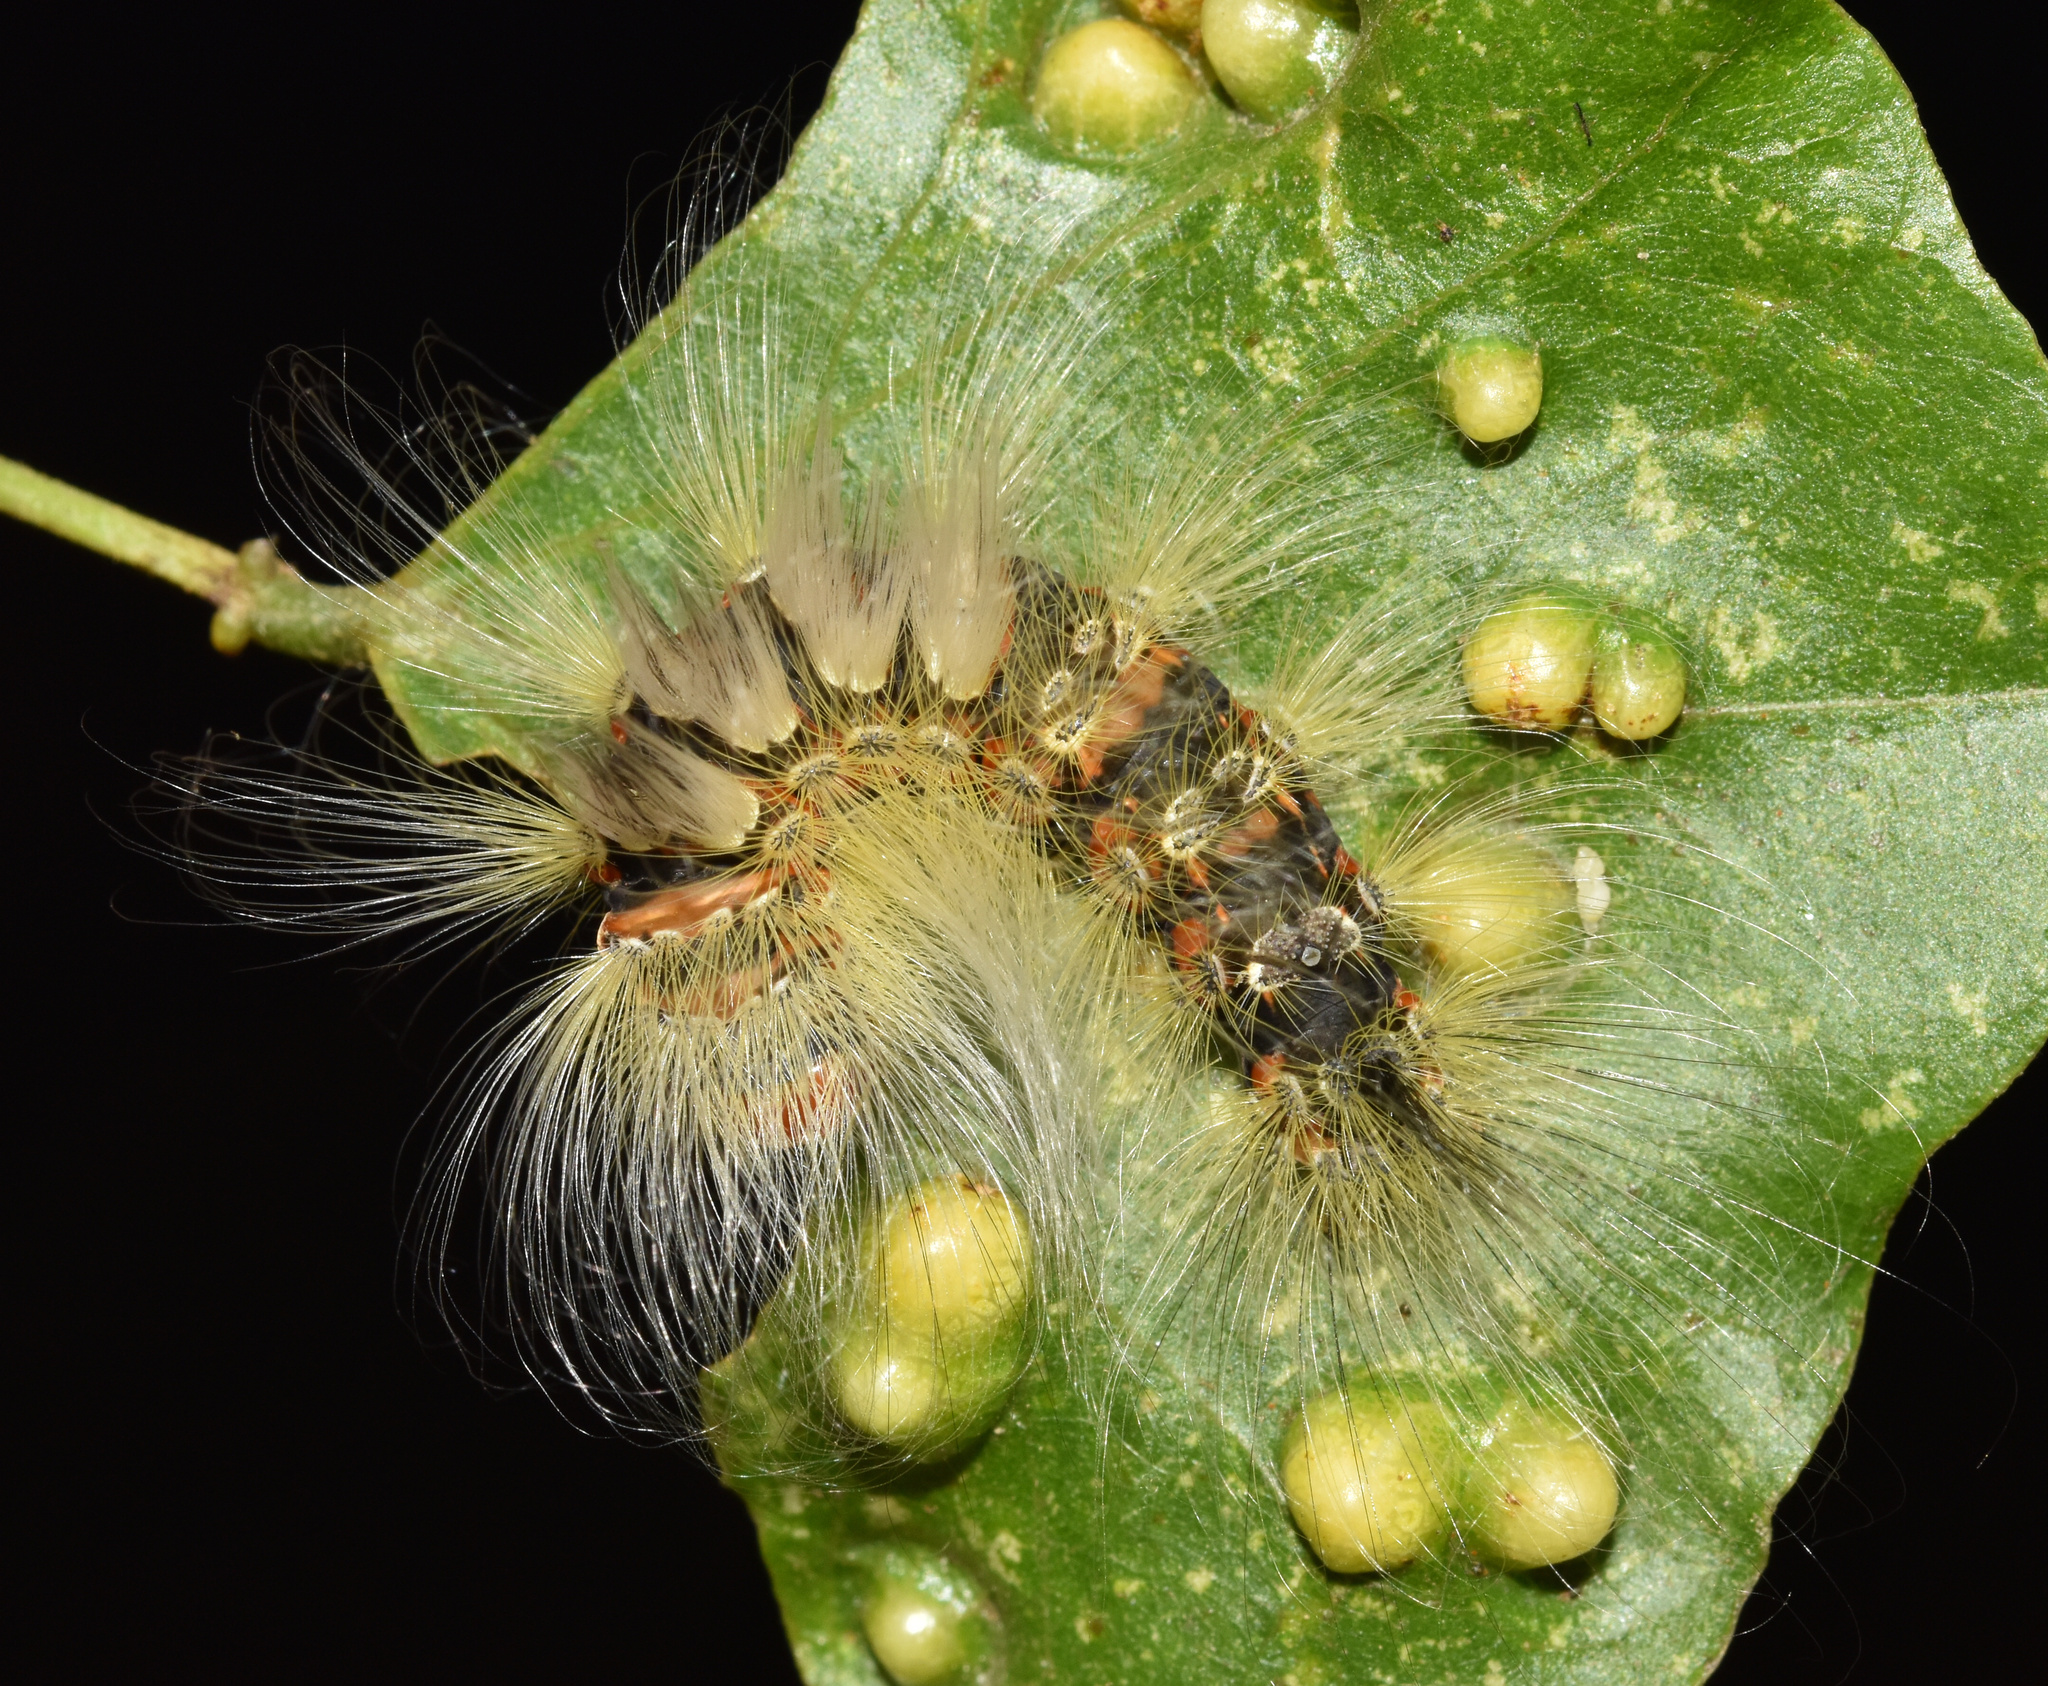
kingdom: Animalia
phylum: Arthropoda
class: Insecta
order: Lepidoptera
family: Erebidae
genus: Dasychira
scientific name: Dasychira georgiana
